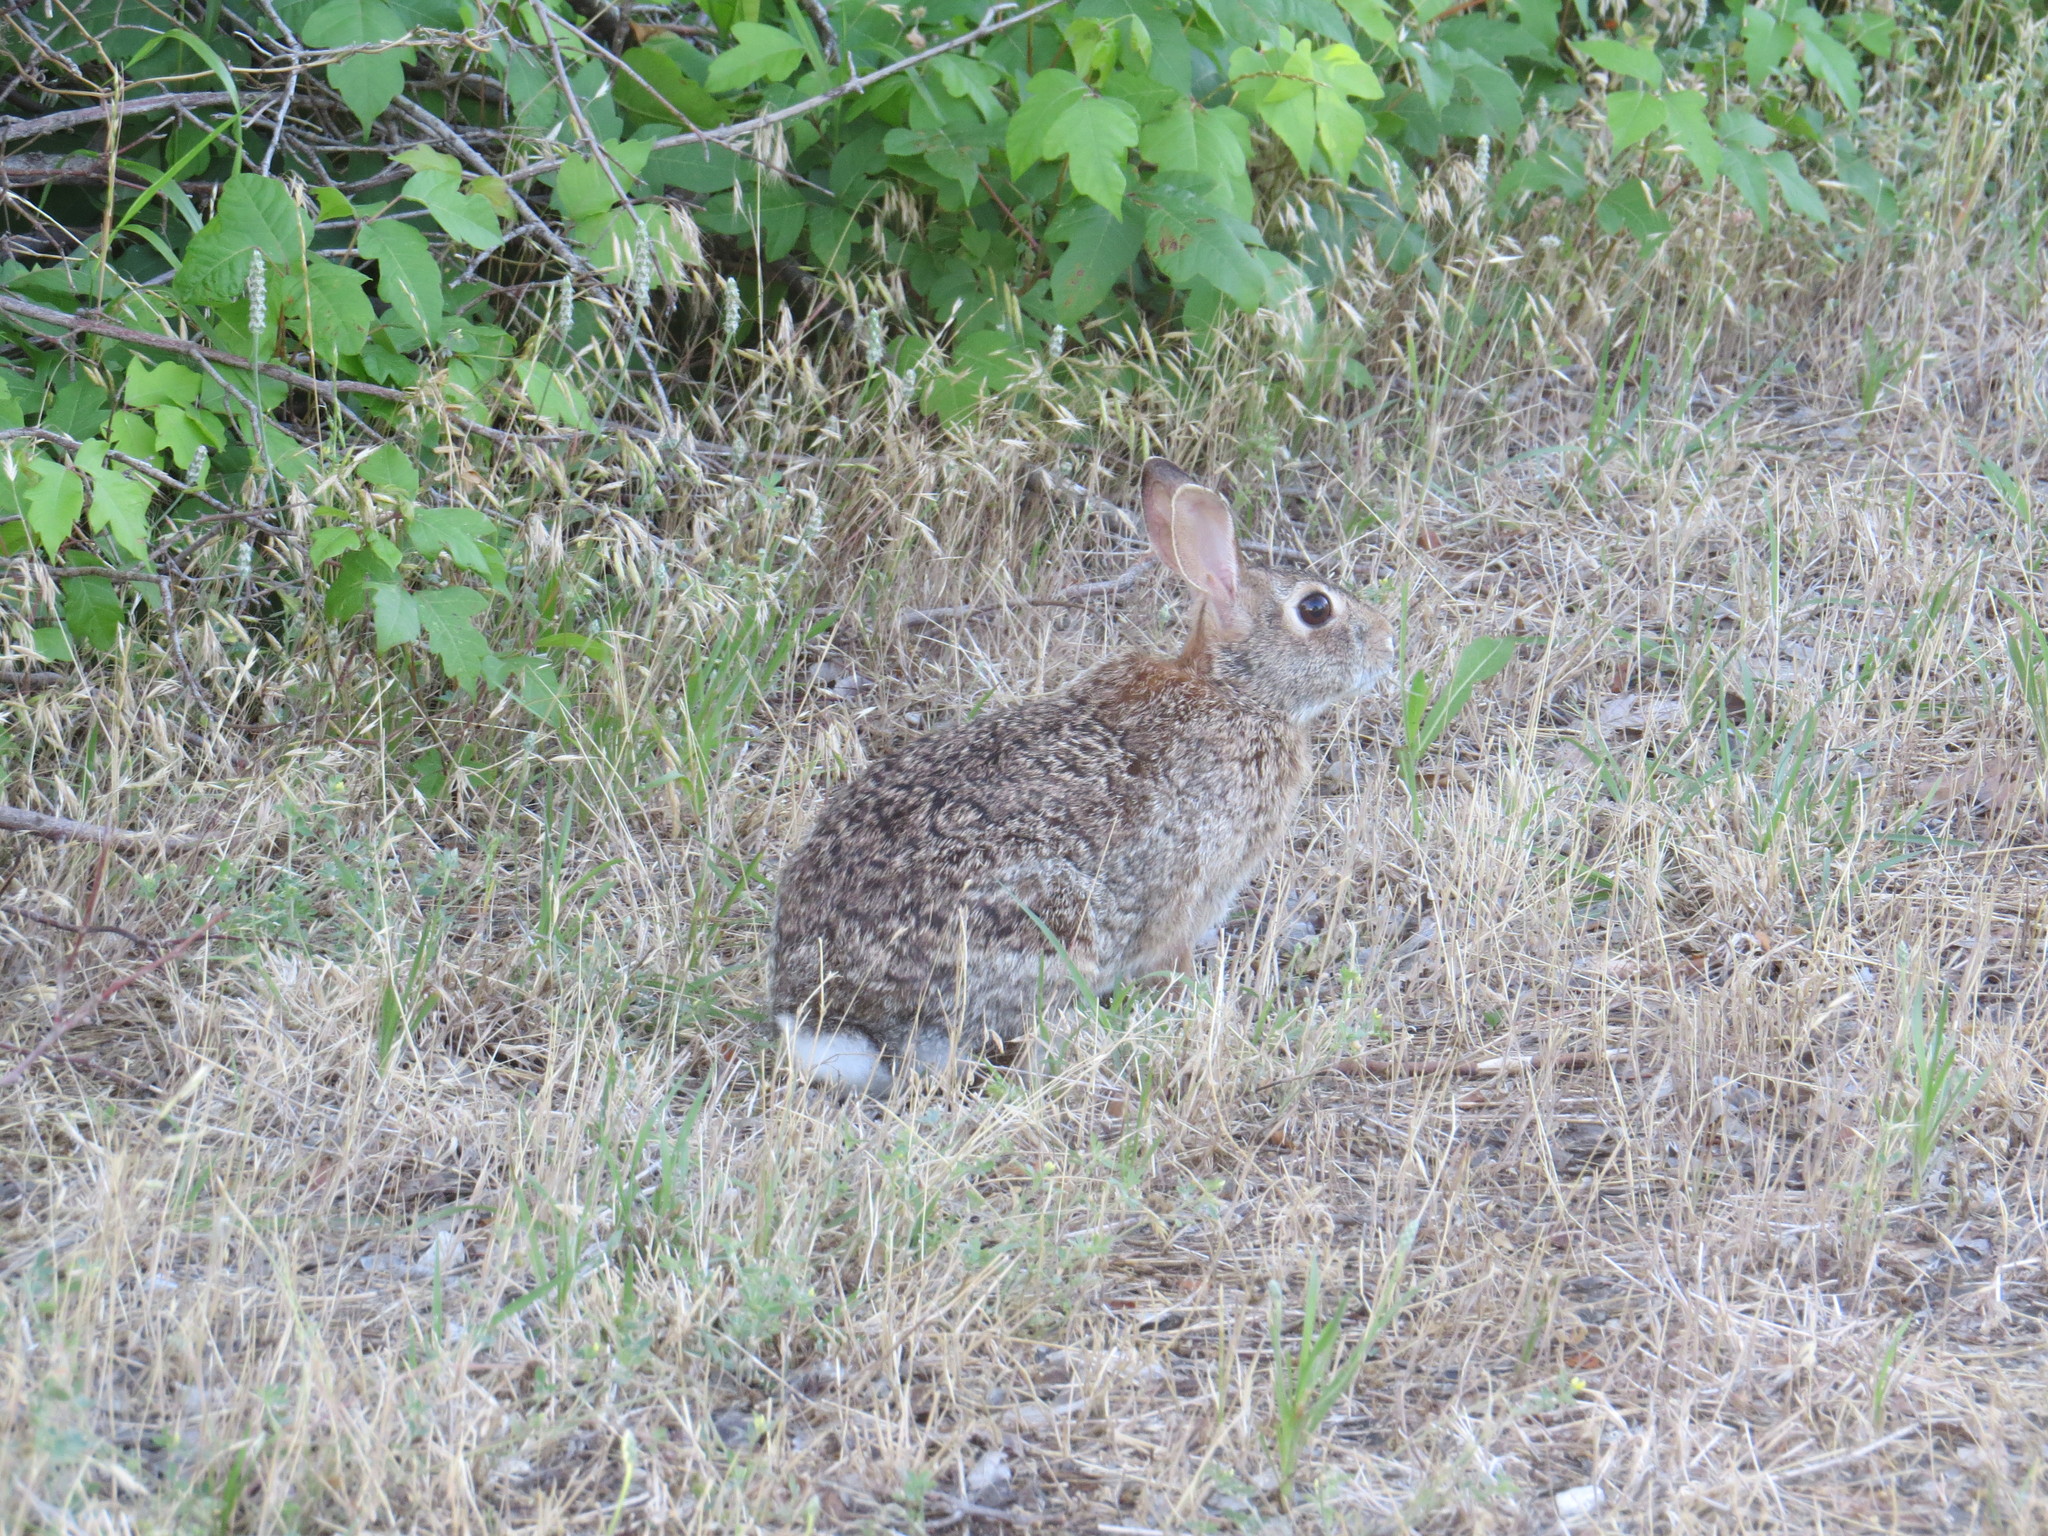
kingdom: Animalia
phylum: Chordata
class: Mammalia
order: Lagomorpha
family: Leporidae
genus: Sylvilagus
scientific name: Sylvilagus floridanus
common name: Eastern cottontail
